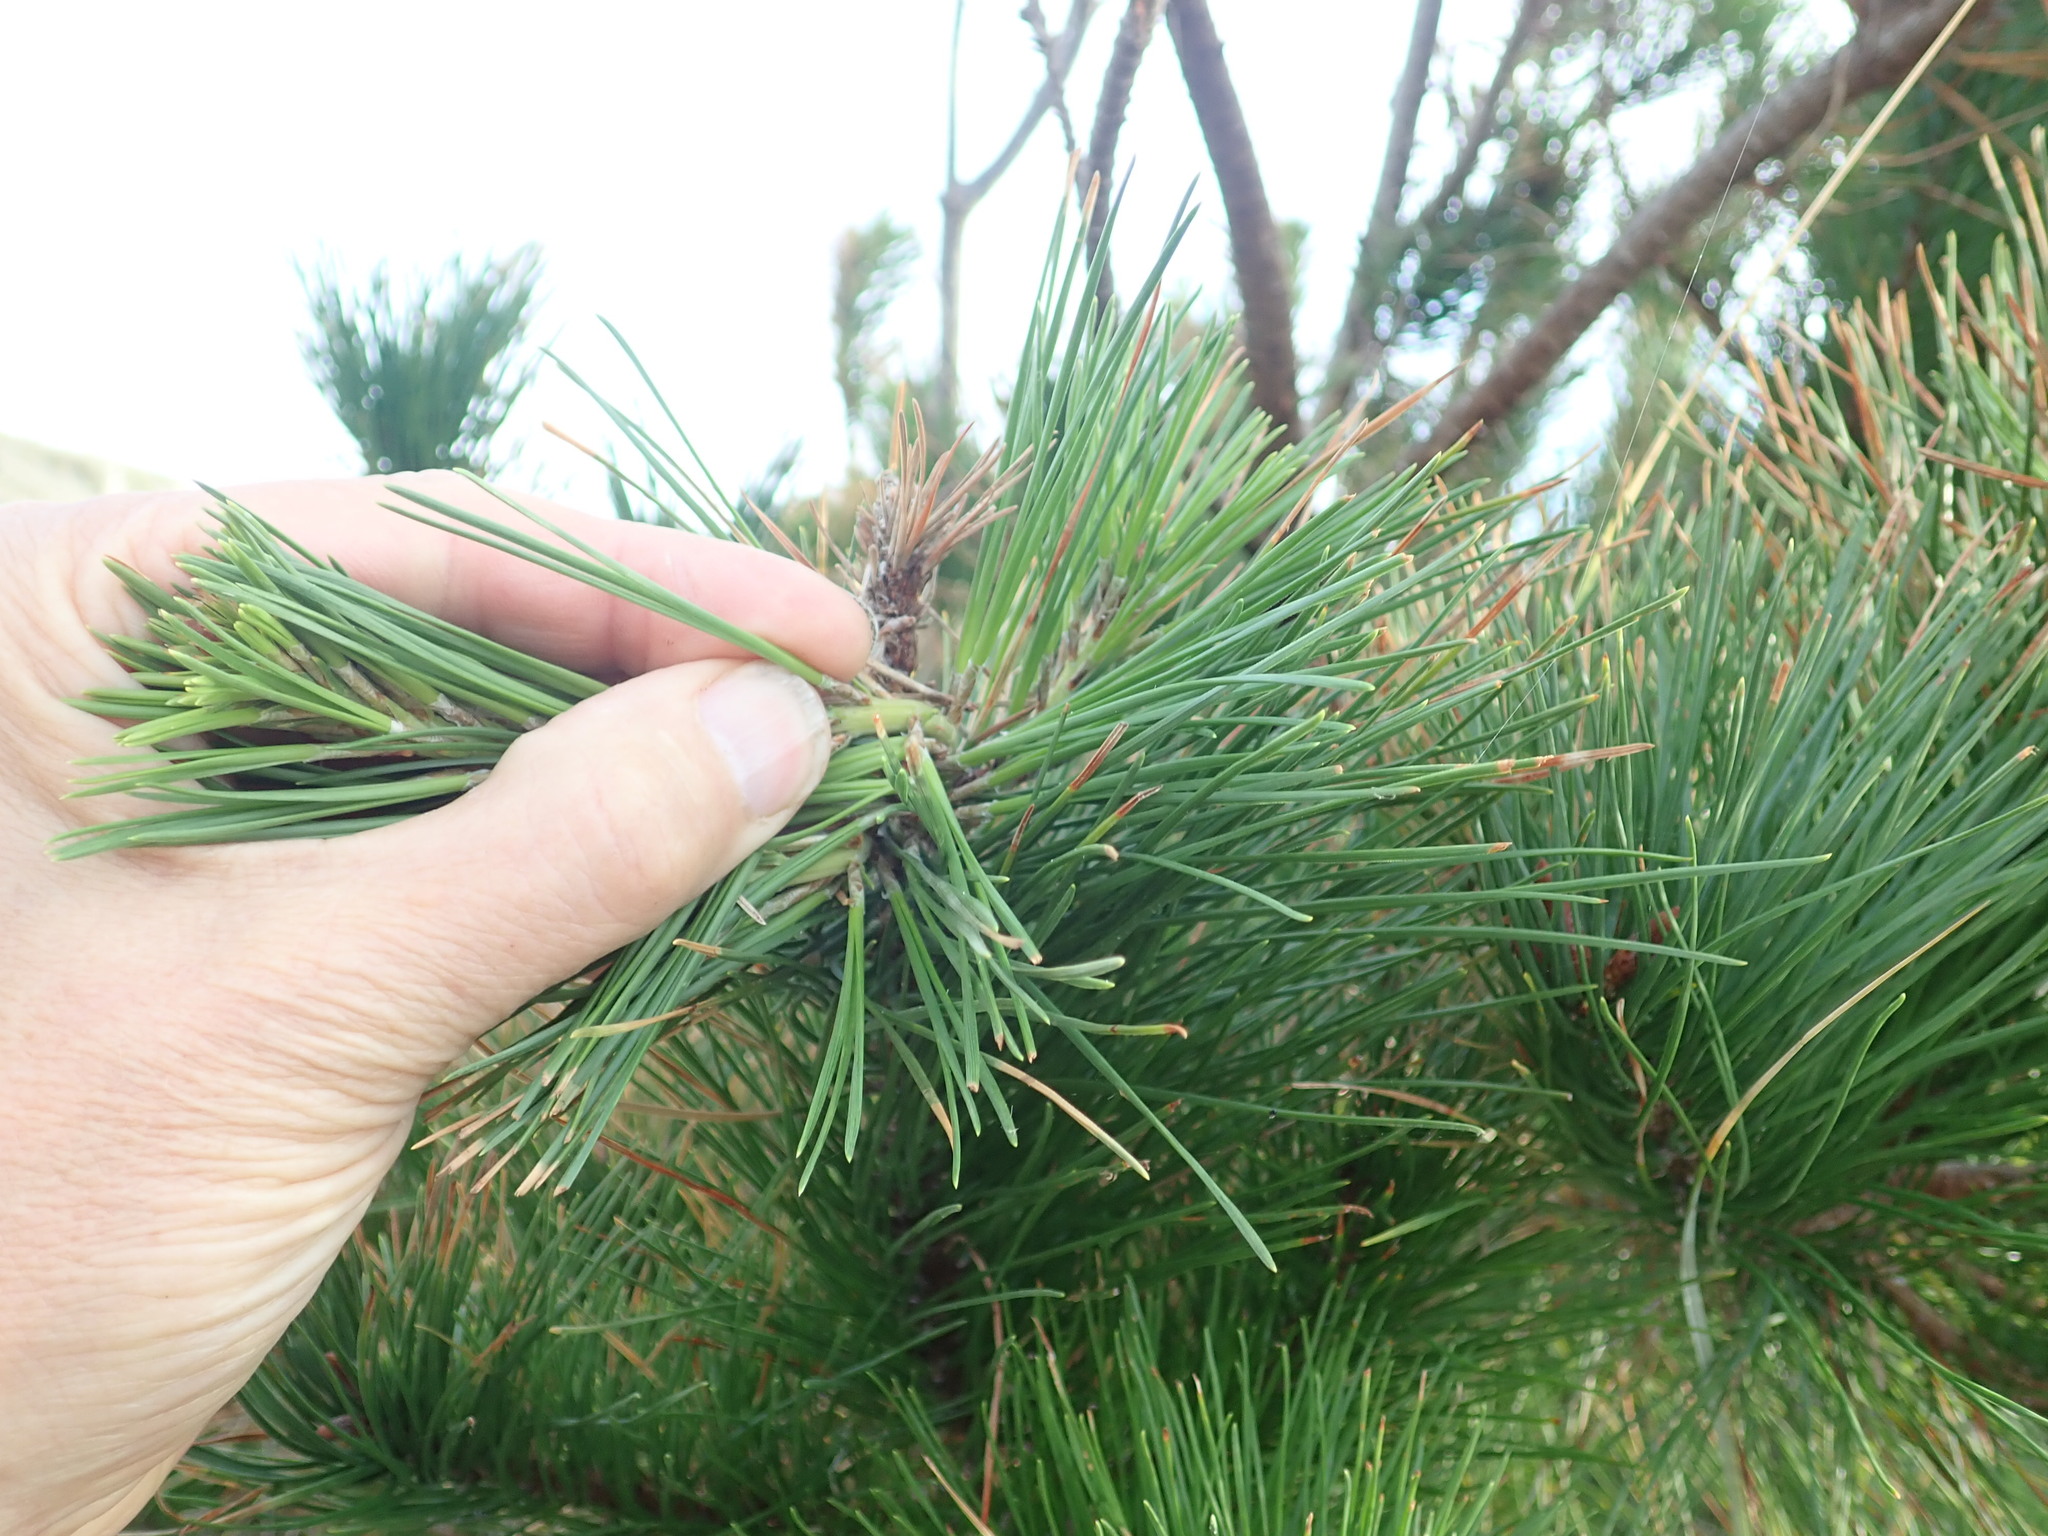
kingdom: Plantae
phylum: Tracheophyta
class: Pinopsida
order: Pinales
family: Pinaceae
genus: Pinus
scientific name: Pinus radiata
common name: Monterey pine
